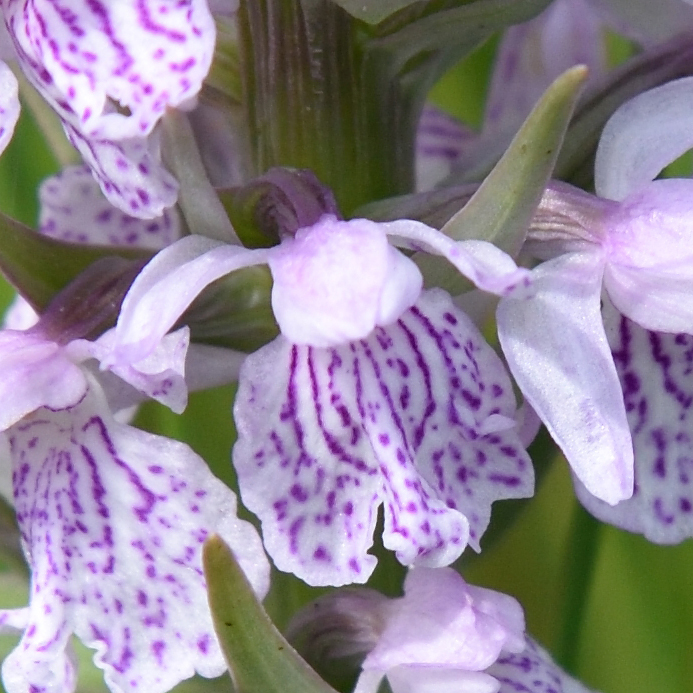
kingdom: Plantae
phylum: Tracheophyta
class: Liliopsida
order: Asparagales
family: Orchidaceae
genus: Dactylorhiza
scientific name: Dactylorhiza maculata
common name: Heath spotted-orchid
